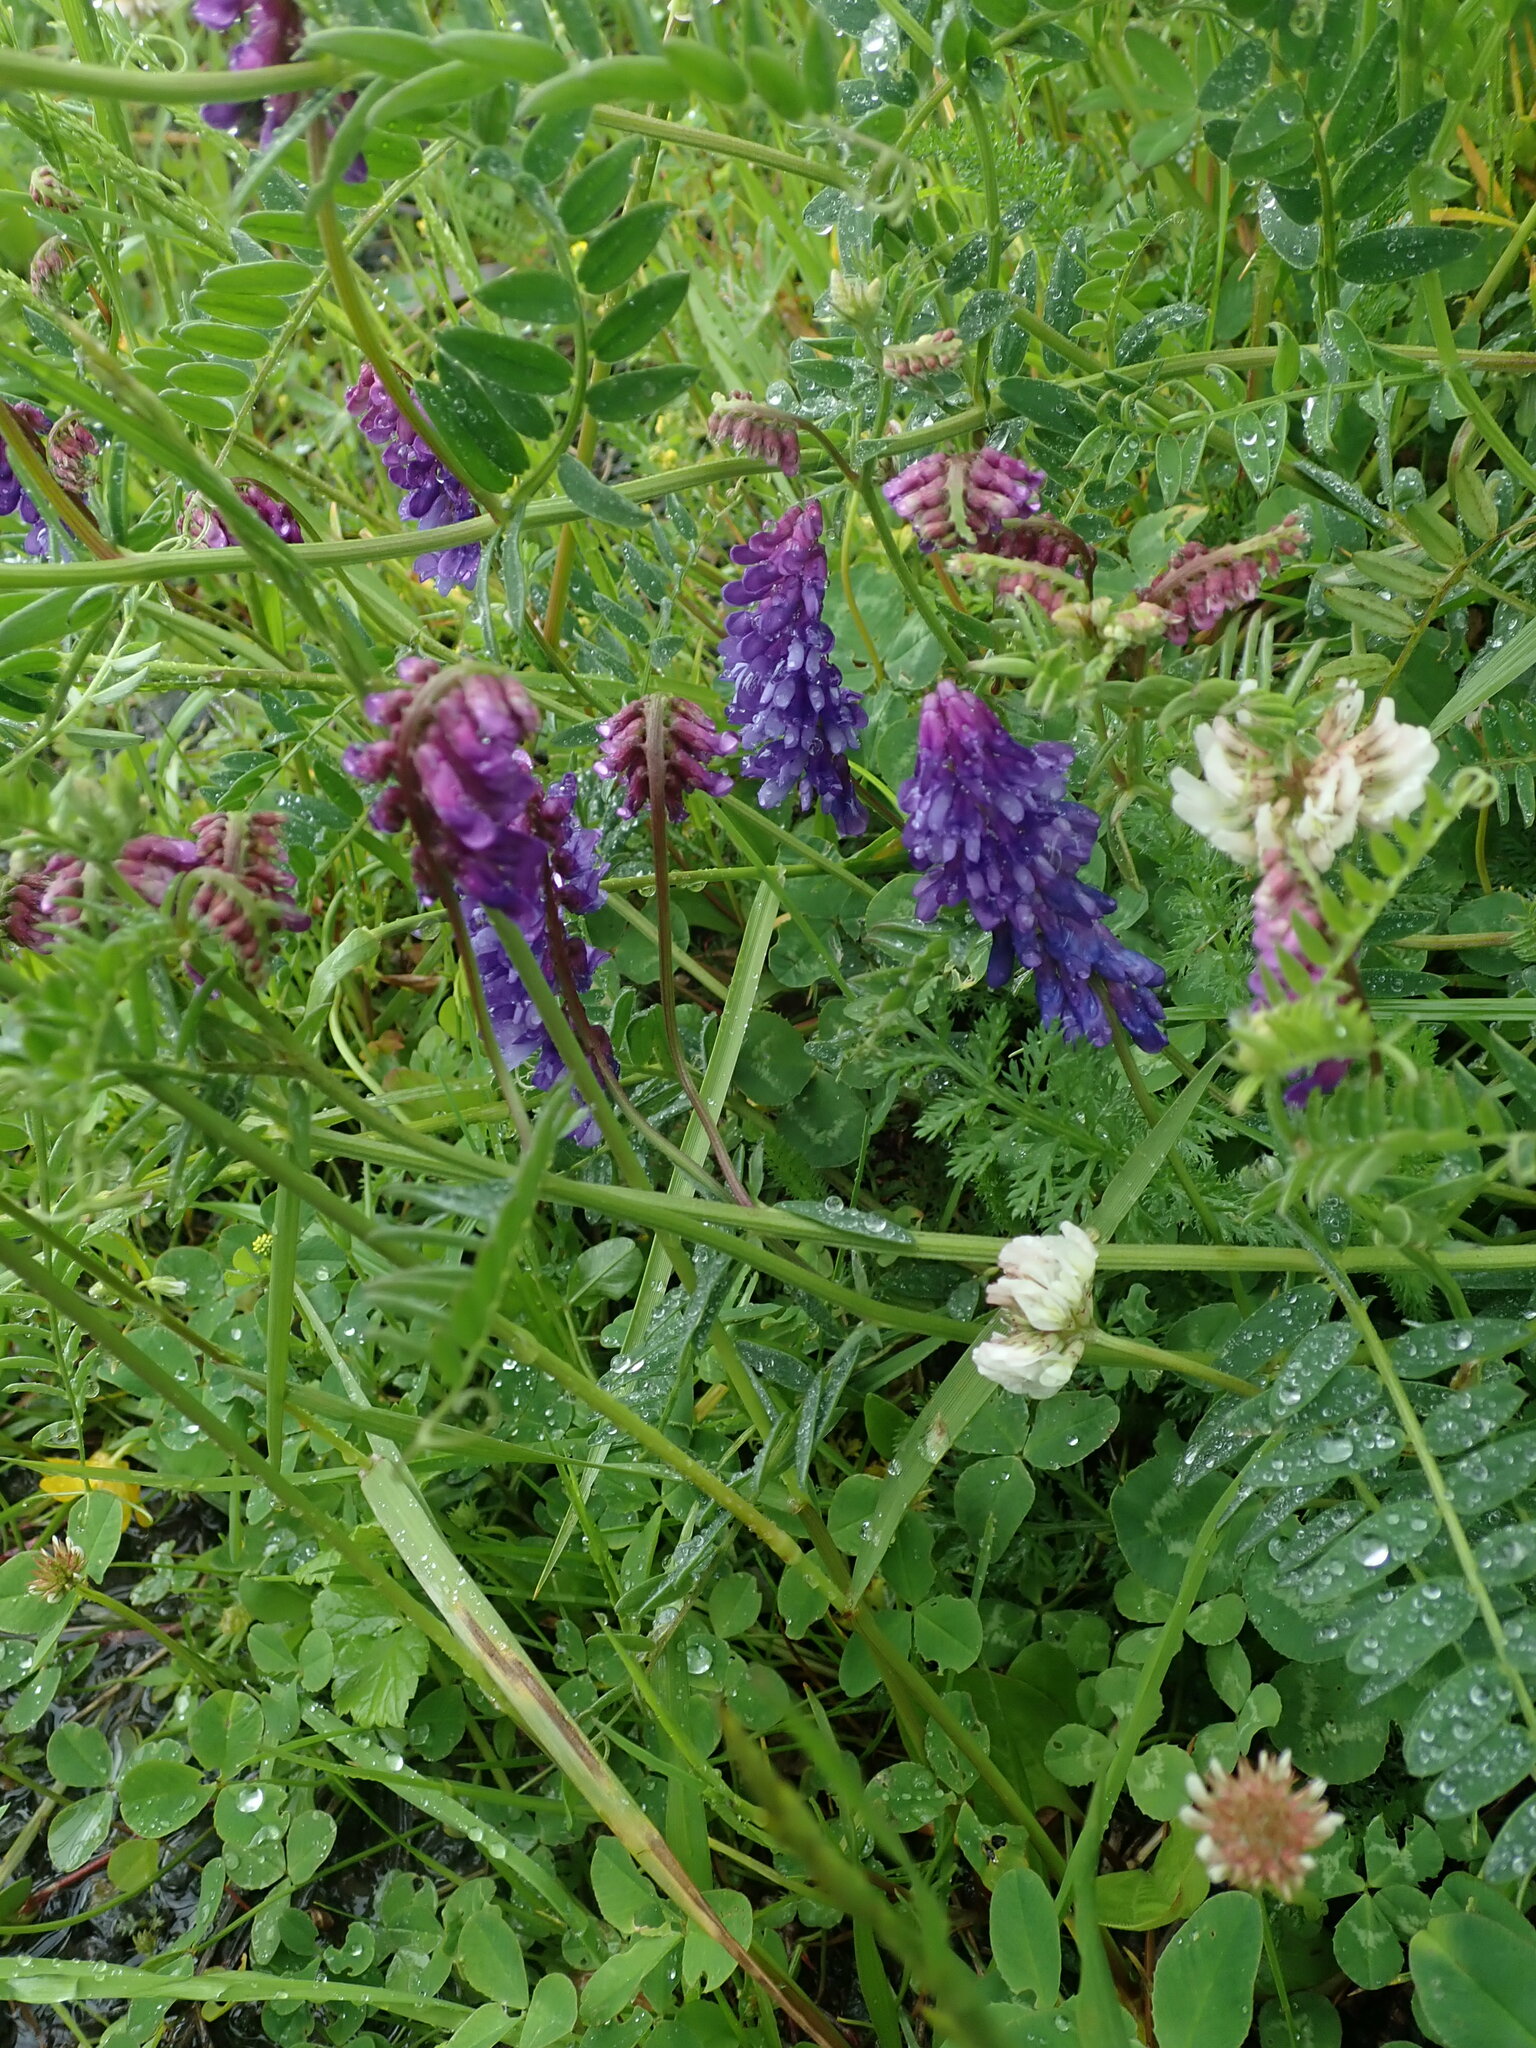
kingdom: Plantae
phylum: Tracheophyta
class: Magnoliopsida
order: Fabales
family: Fabaceae
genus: Vicia
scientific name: Vicia cracca
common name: Bird vetch
